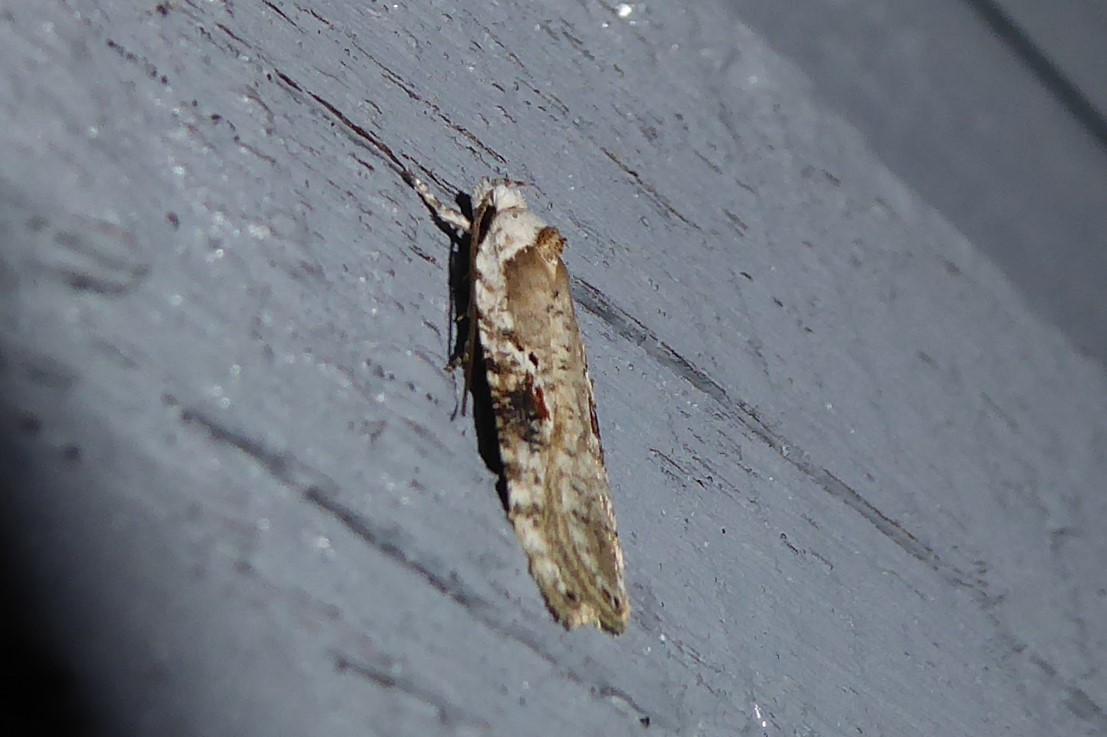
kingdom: Animalia
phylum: Arthropoda
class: Insecta
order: Lepidoptera
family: Depressariidae
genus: Agonopterix
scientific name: Agonopterix alstroemeriana
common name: Moth
